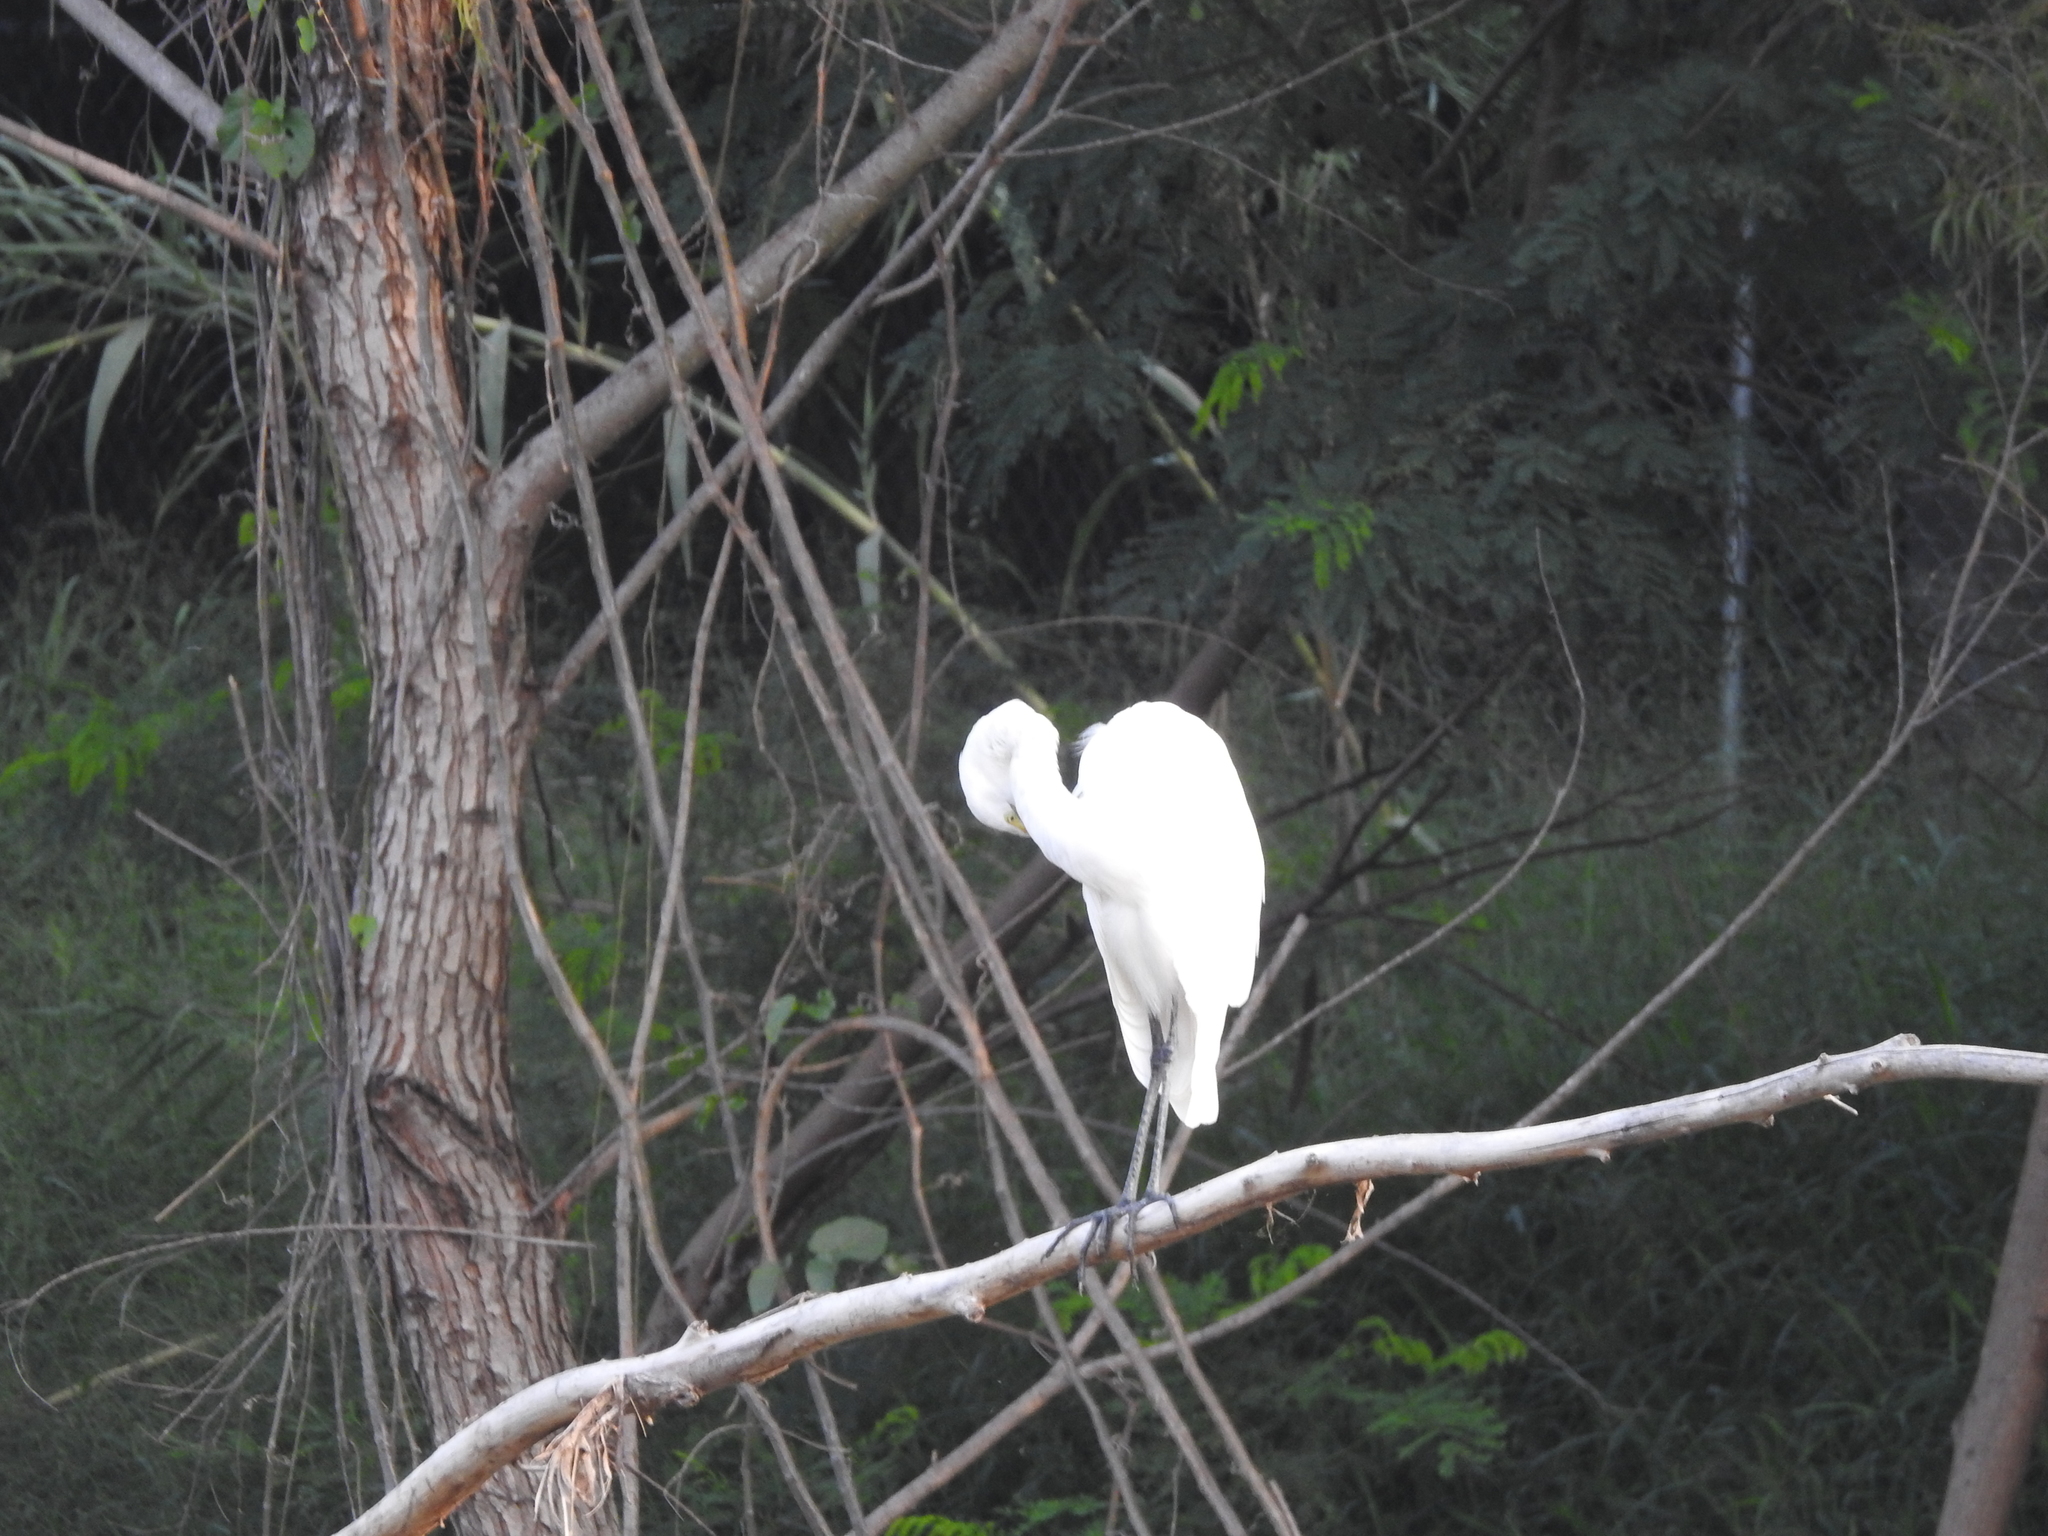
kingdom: Animalia
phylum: Chordata
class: Aves
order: Pelecaniformes
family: Ardeidae
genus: Ardea
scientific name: Ardea alba
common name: Great egret
